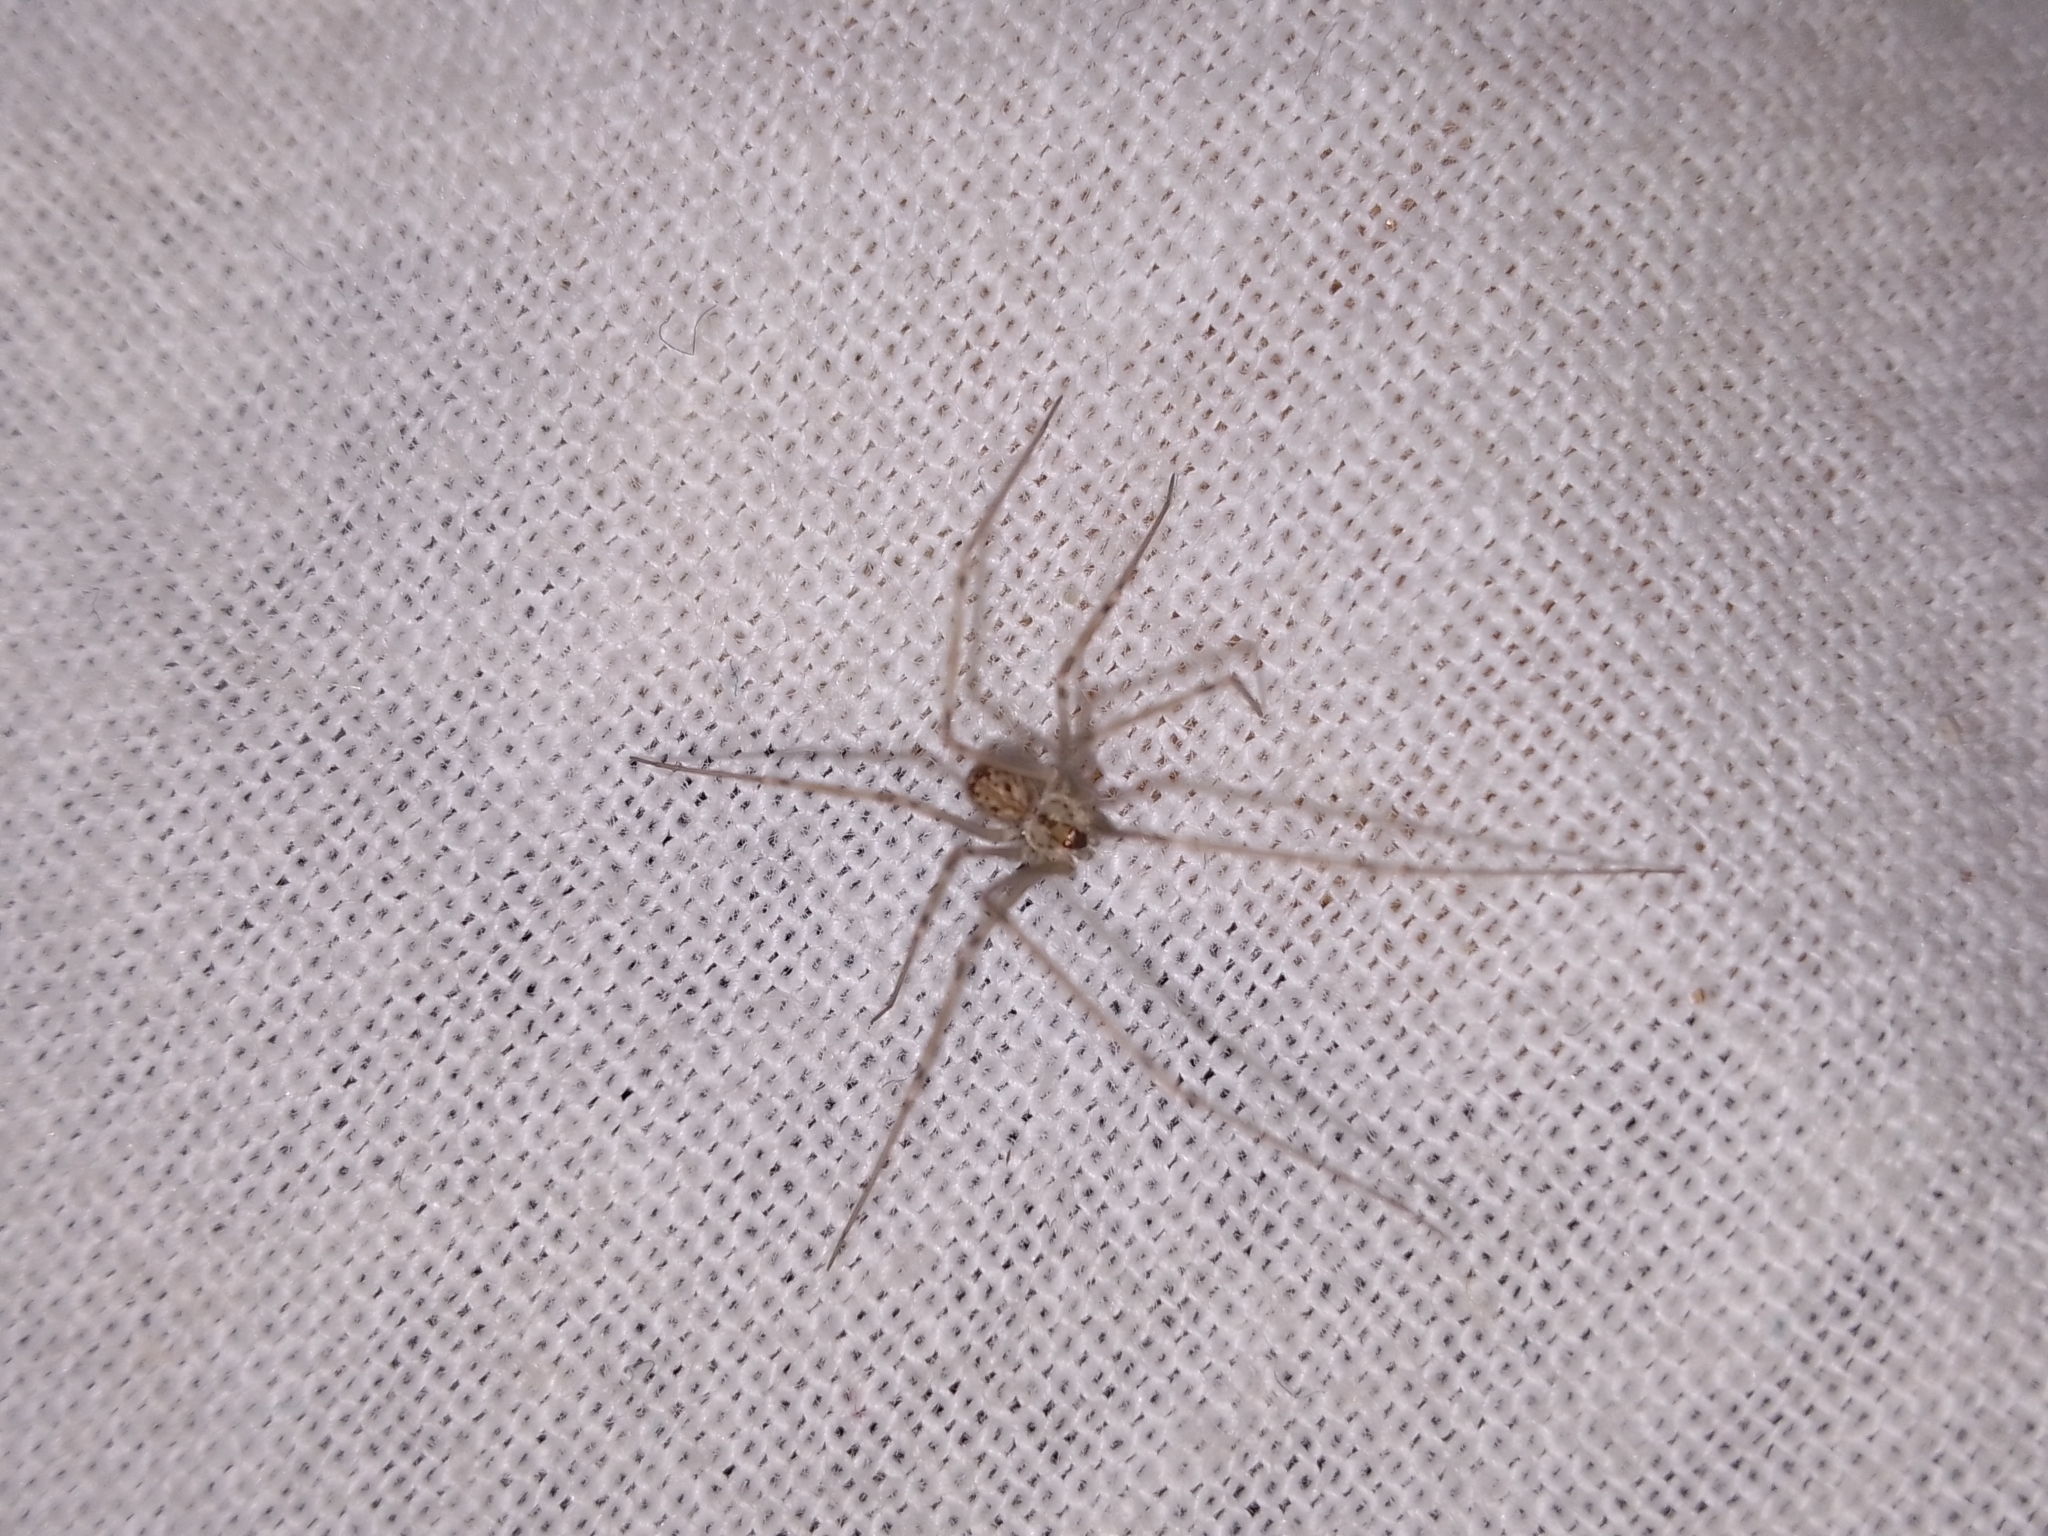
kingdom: Animalia
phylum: Arthropoda
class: Arachnida
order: Araneae
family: Pholcidae
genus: Physocyclus
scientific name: Physocyclus globosus
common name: Cellar spiders
